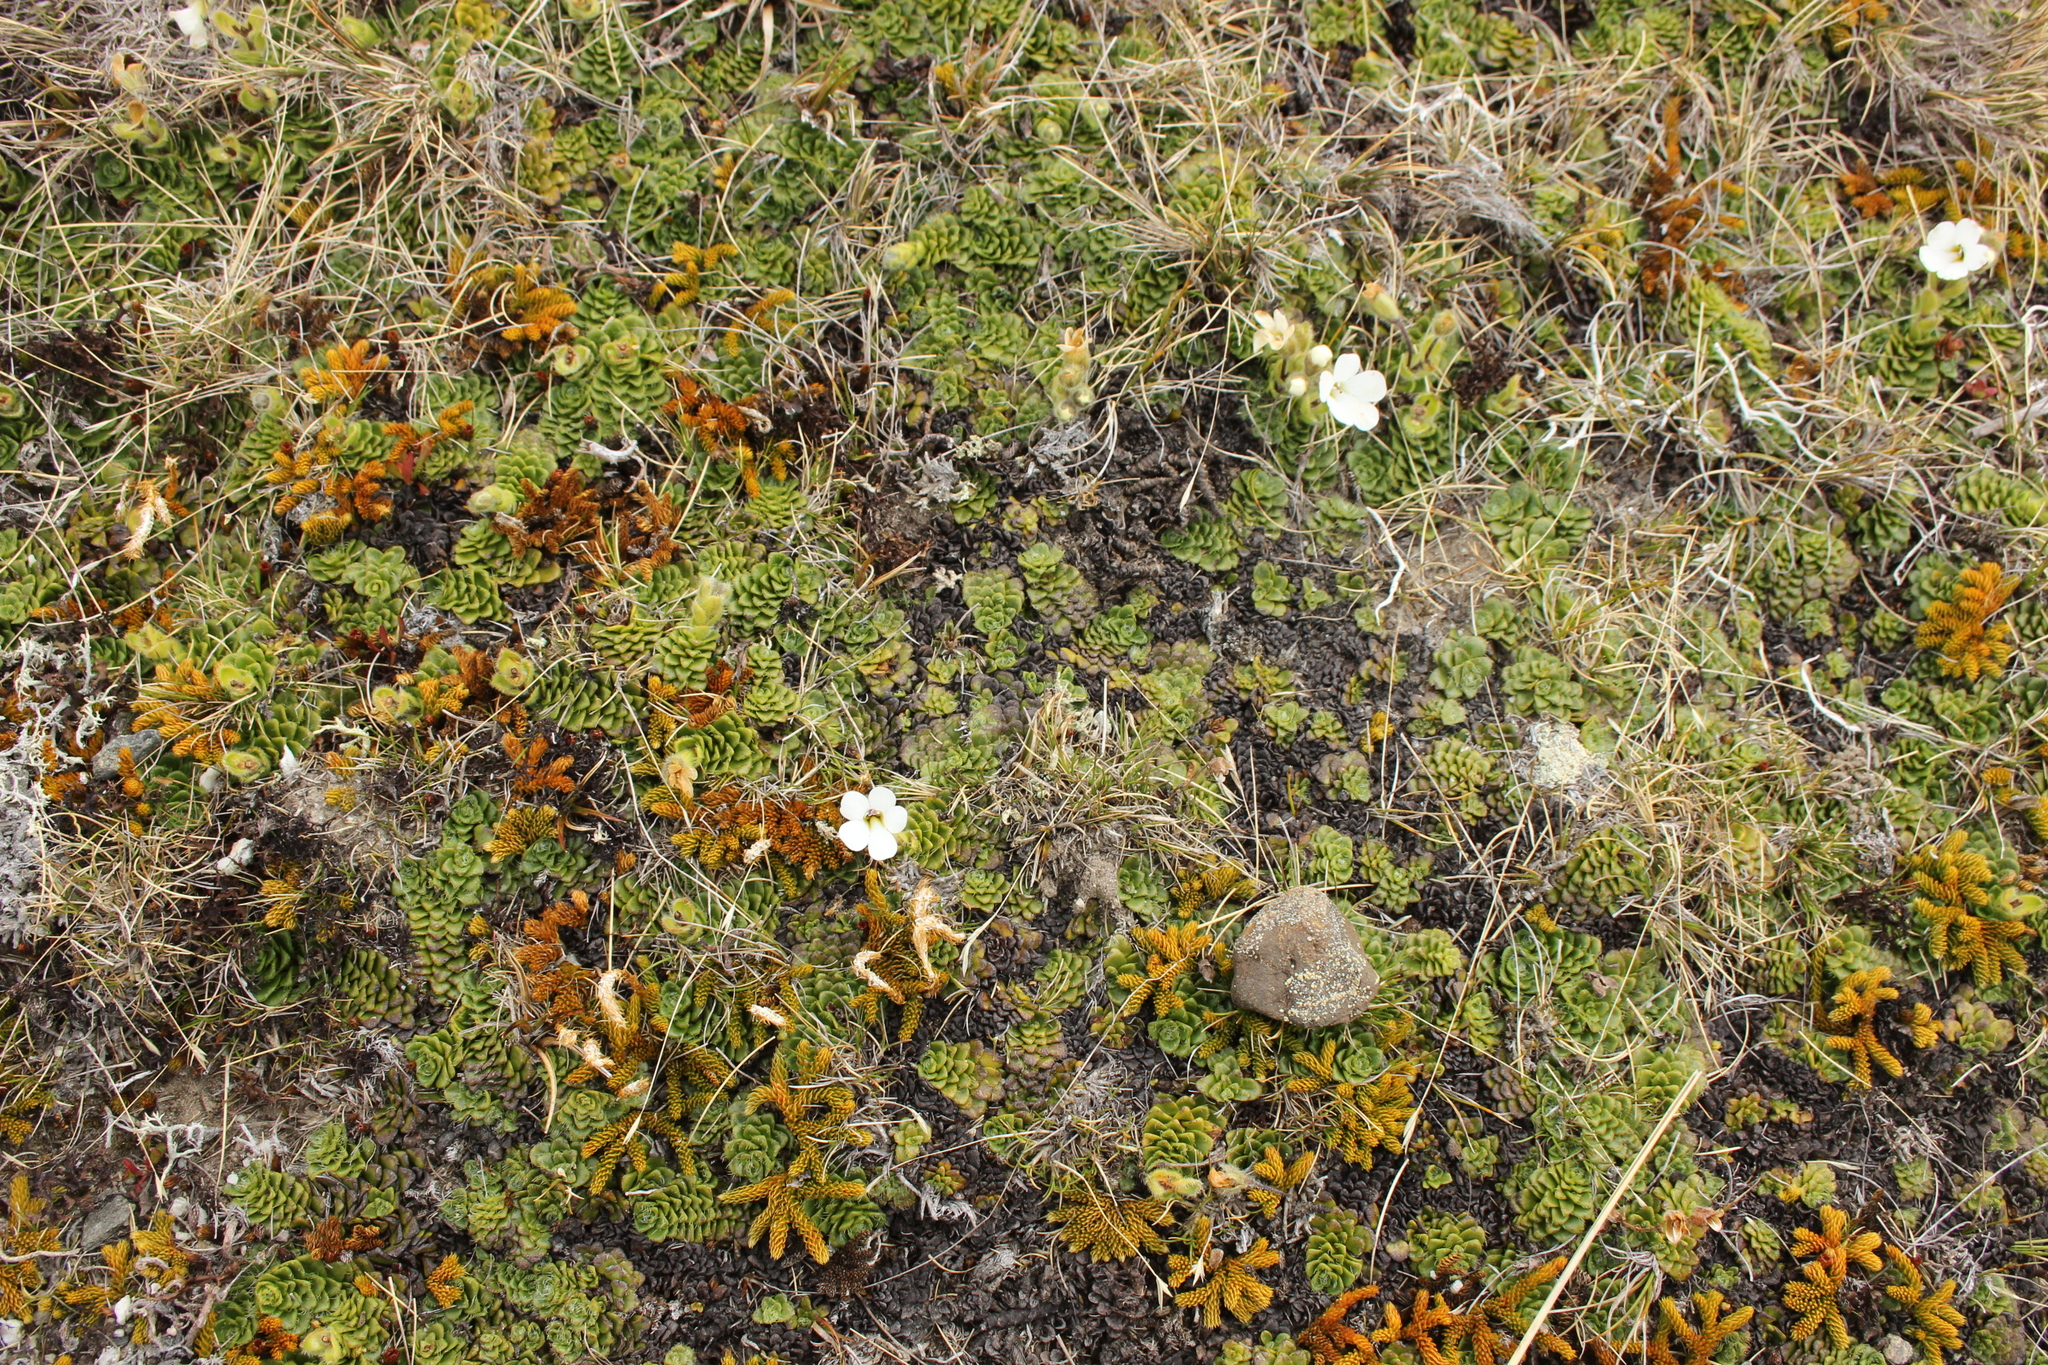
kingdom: Plantae
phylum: Tracheophyta
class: Magnoliopsida
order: Lamiales
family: Plantaginaceae
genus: Ourisia
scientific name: Ourisia glandulosa
